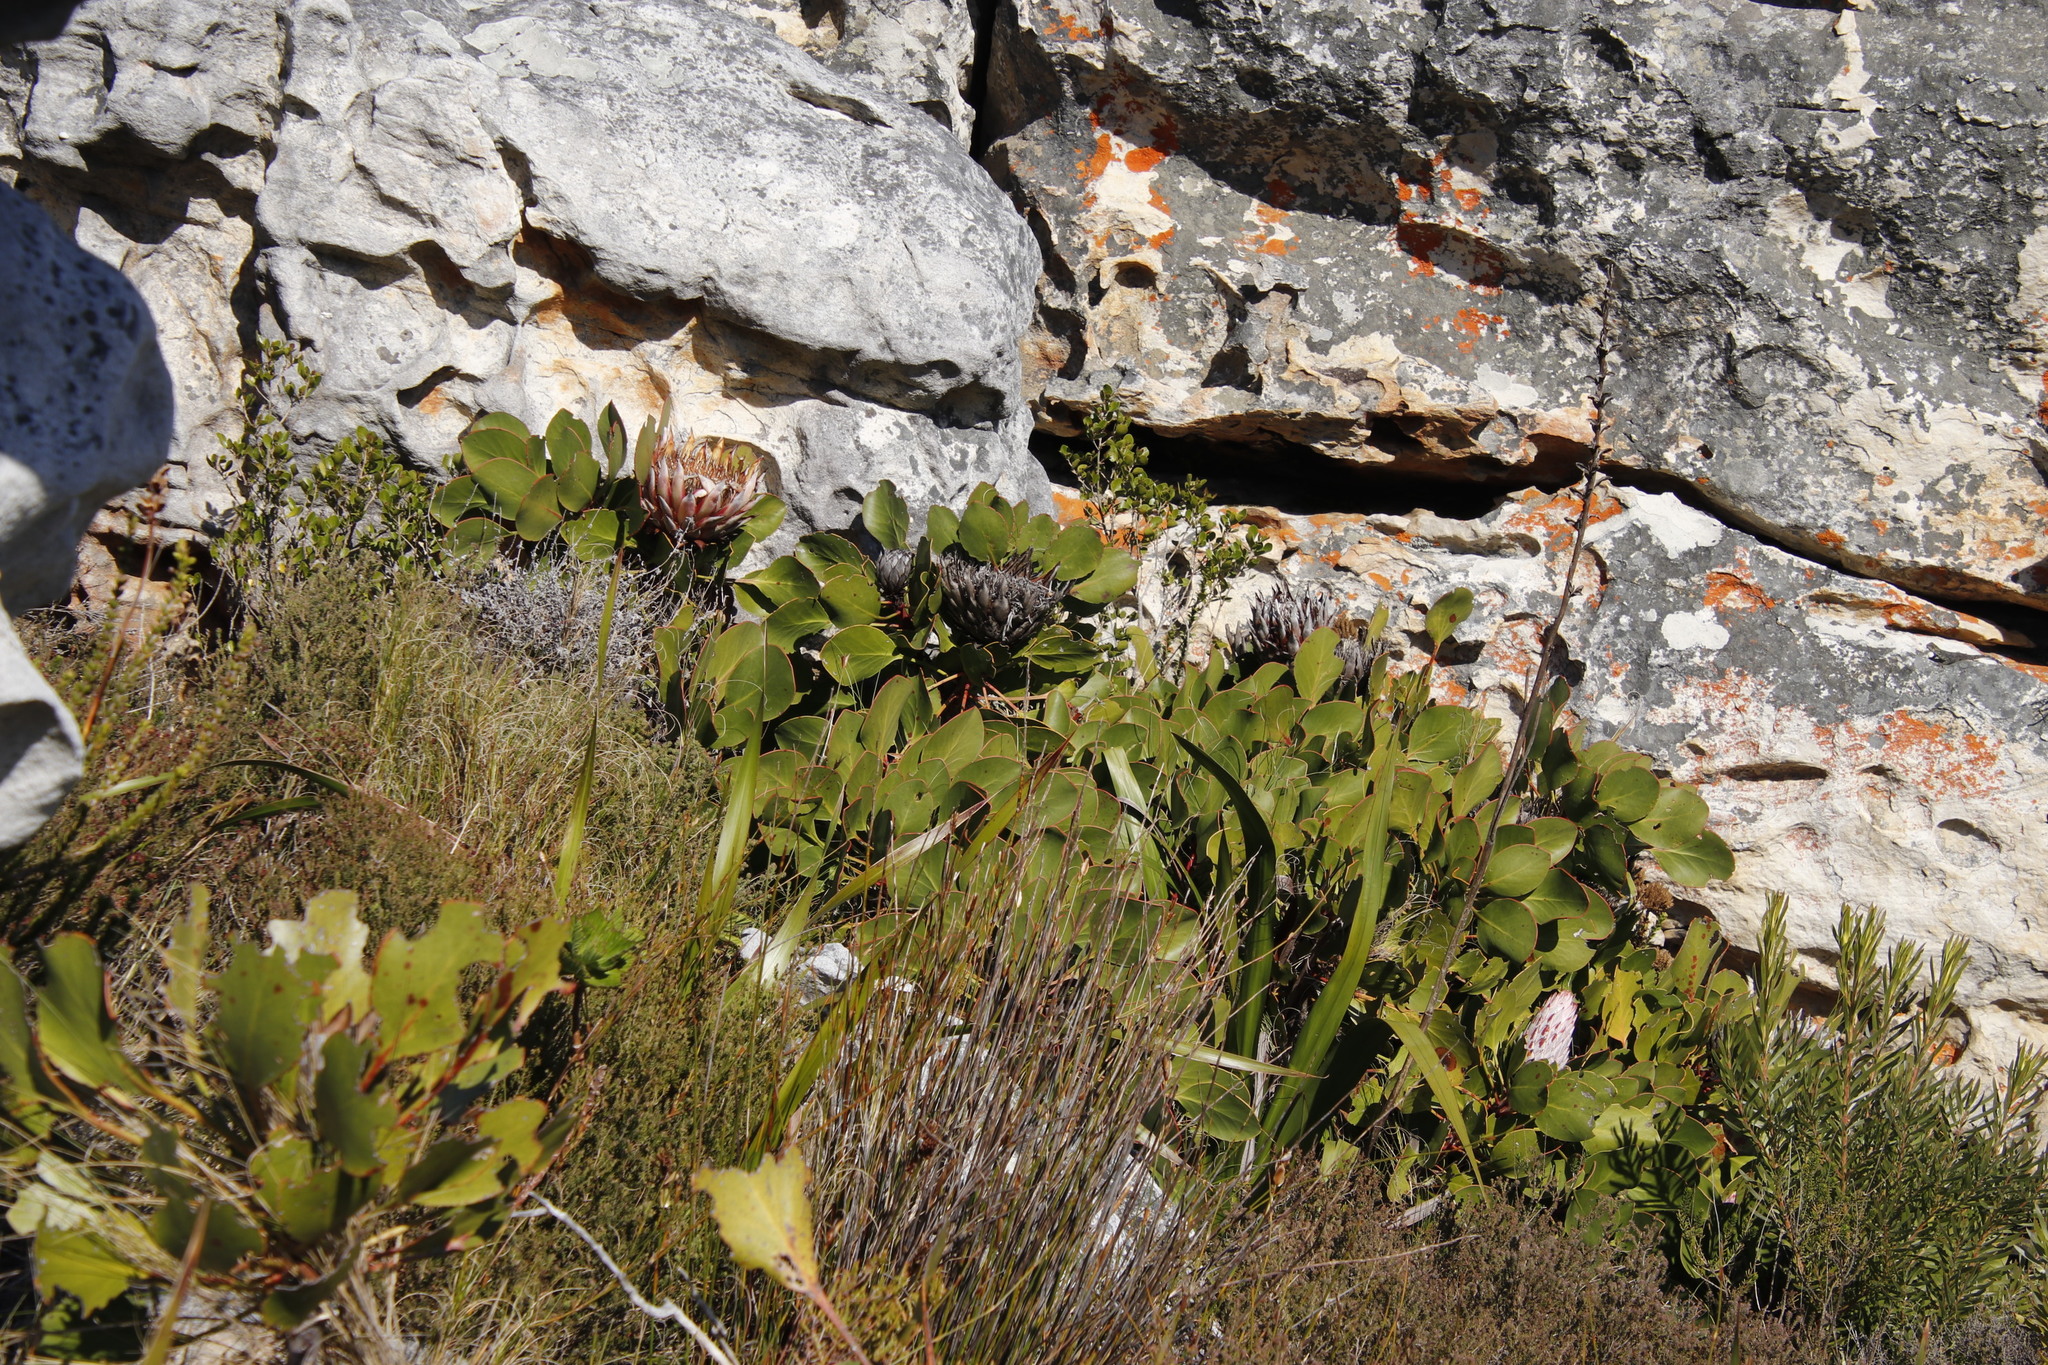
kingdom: Plantae
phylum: Tracheophyta
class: Magnoliopsida
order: Proteales
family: Proteaceae
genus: Protea
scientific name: Protea cynaroides
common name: King protea
